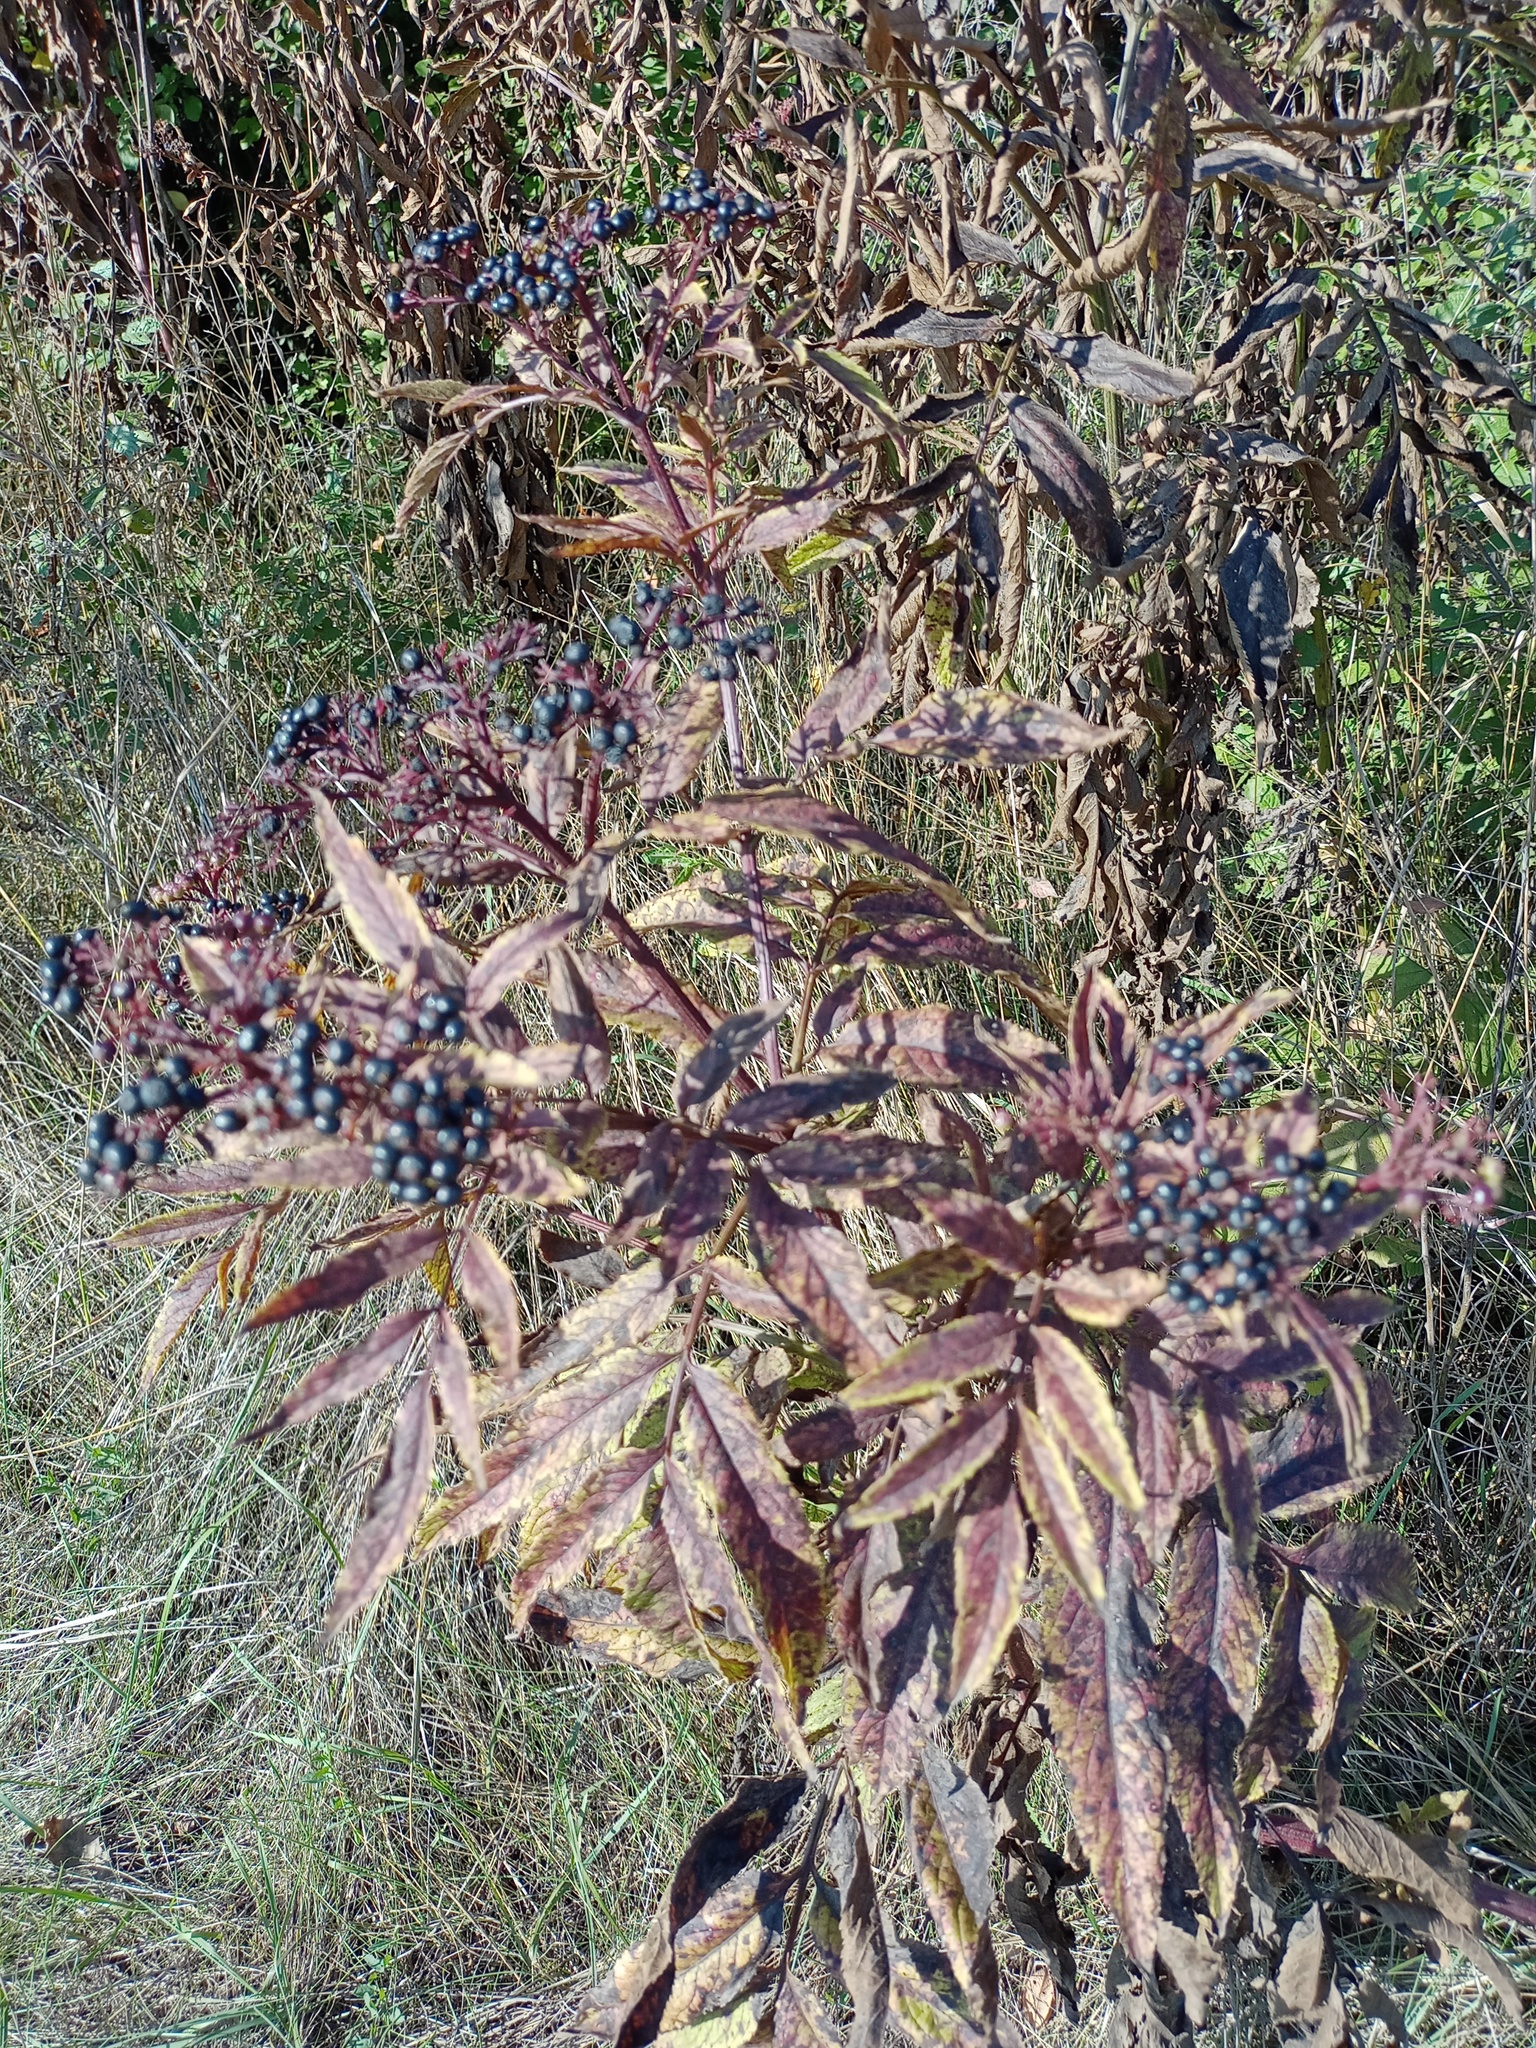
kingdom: Plantae
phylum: Tracheophyta
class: Magnoliopsida
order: Dipsacales
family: Viburnaceae
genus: Sambucus
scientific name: Sambucus ebulus
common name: Dwarf elder
